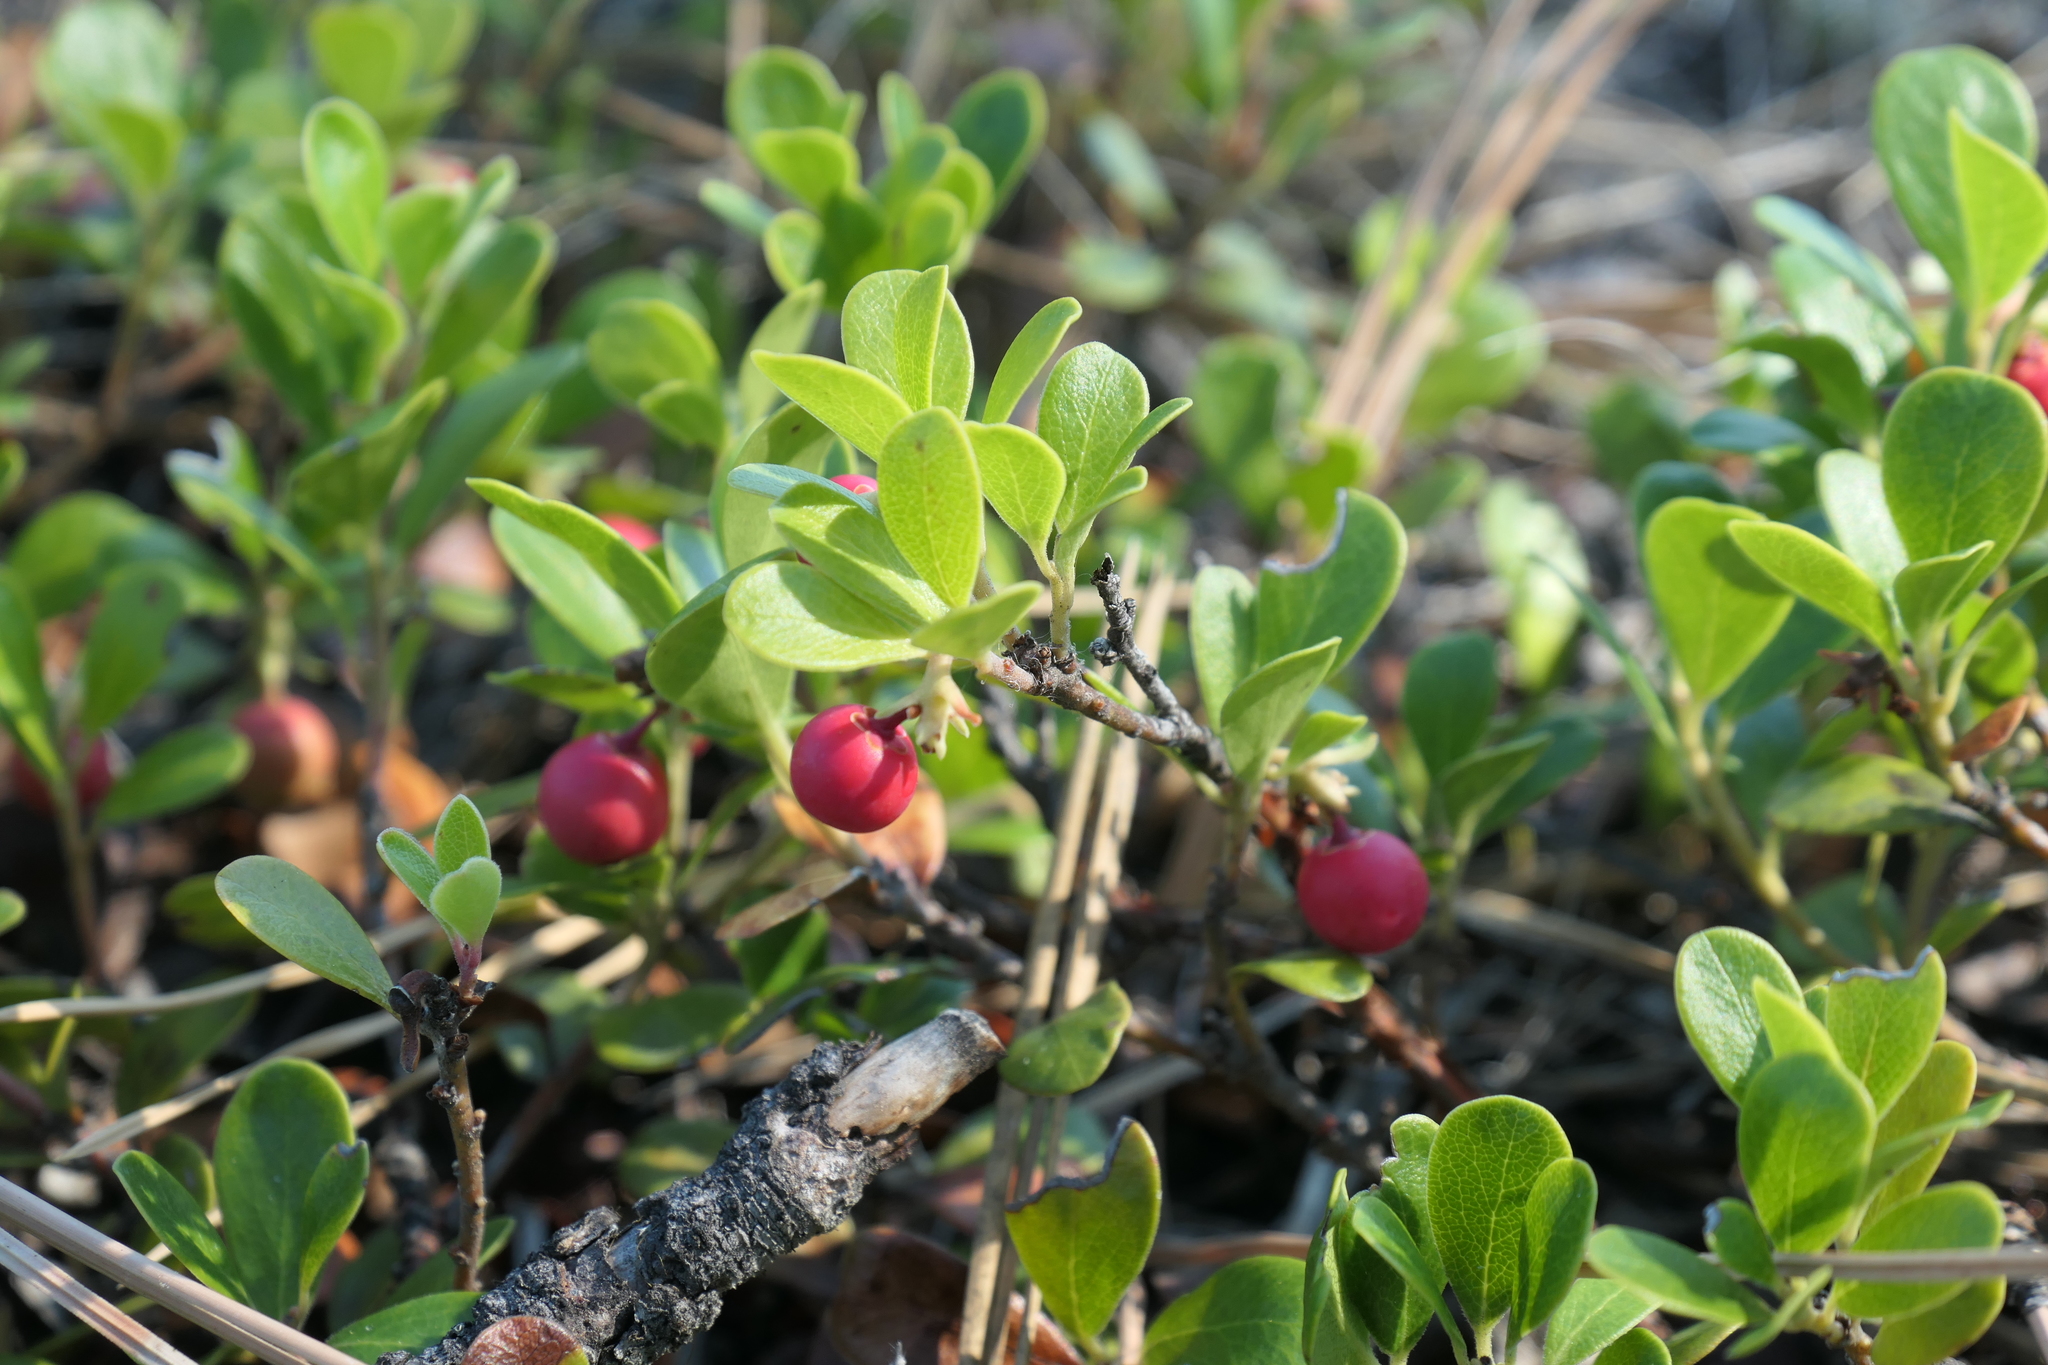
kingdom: Plantae
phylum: Tracheophyta
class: Magnoliopsida
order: Ericales
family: Ericaceae
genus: Arctostaphylos
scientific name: Arctostaphylos uva-ursi
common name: Bearberry
